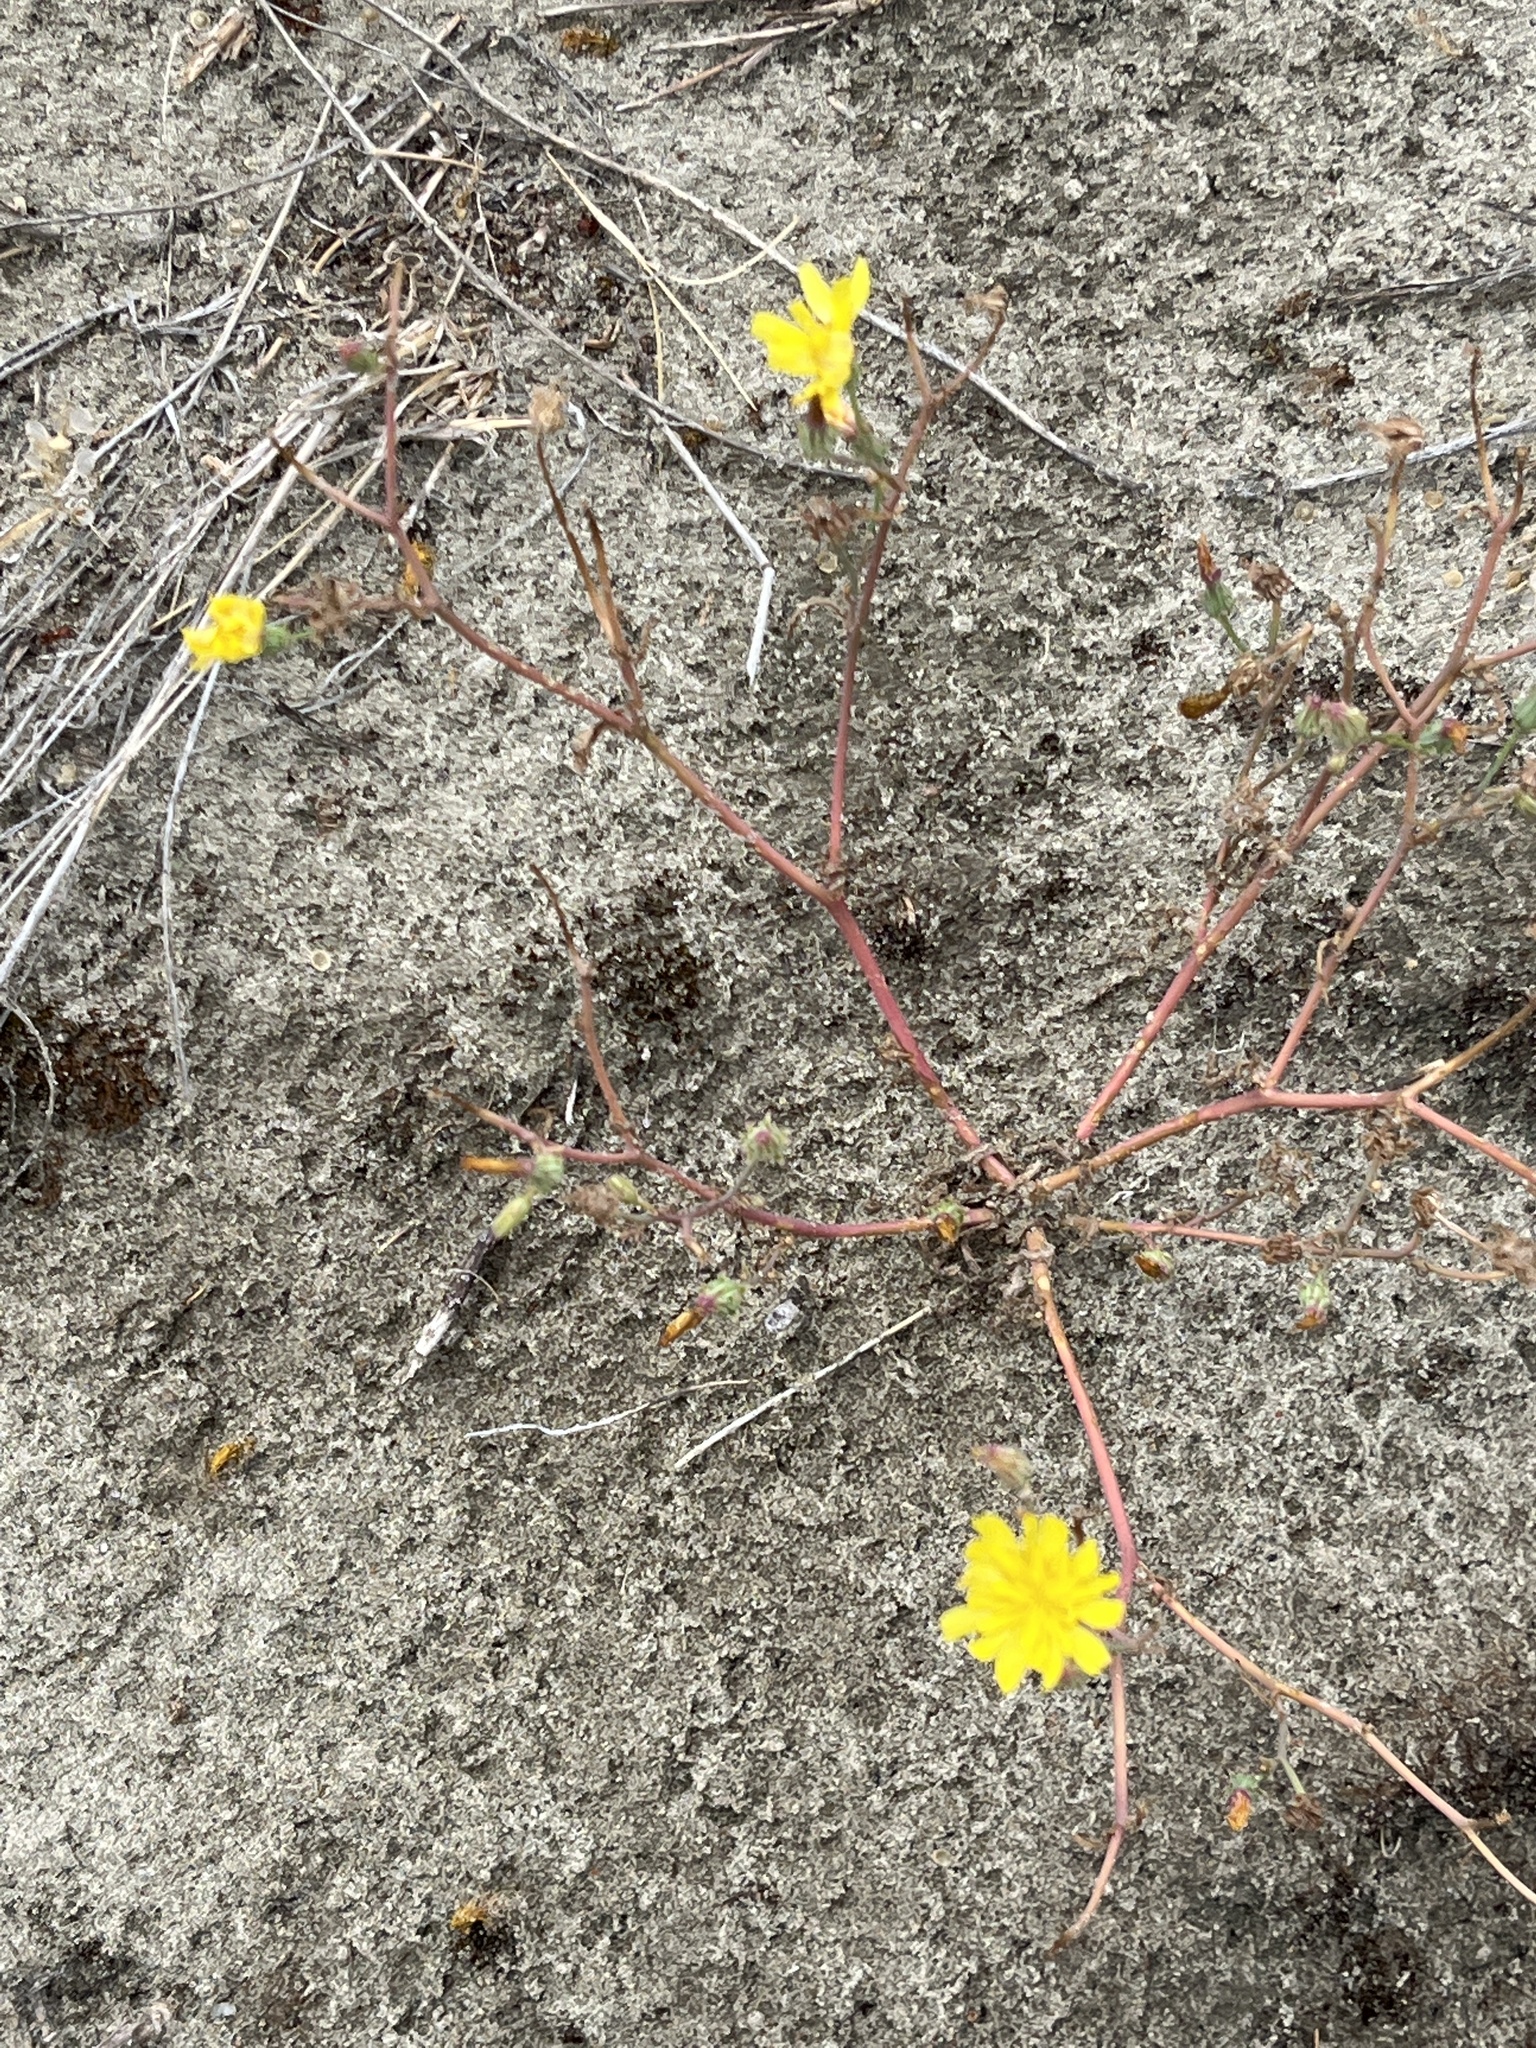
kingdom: Plantae
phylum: Tracheophyta
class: Magnoliopsida
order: Caryophyllales
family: Portulacaceae
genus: Portulaca
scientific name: Portulaca oleracea
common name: Common purslane
